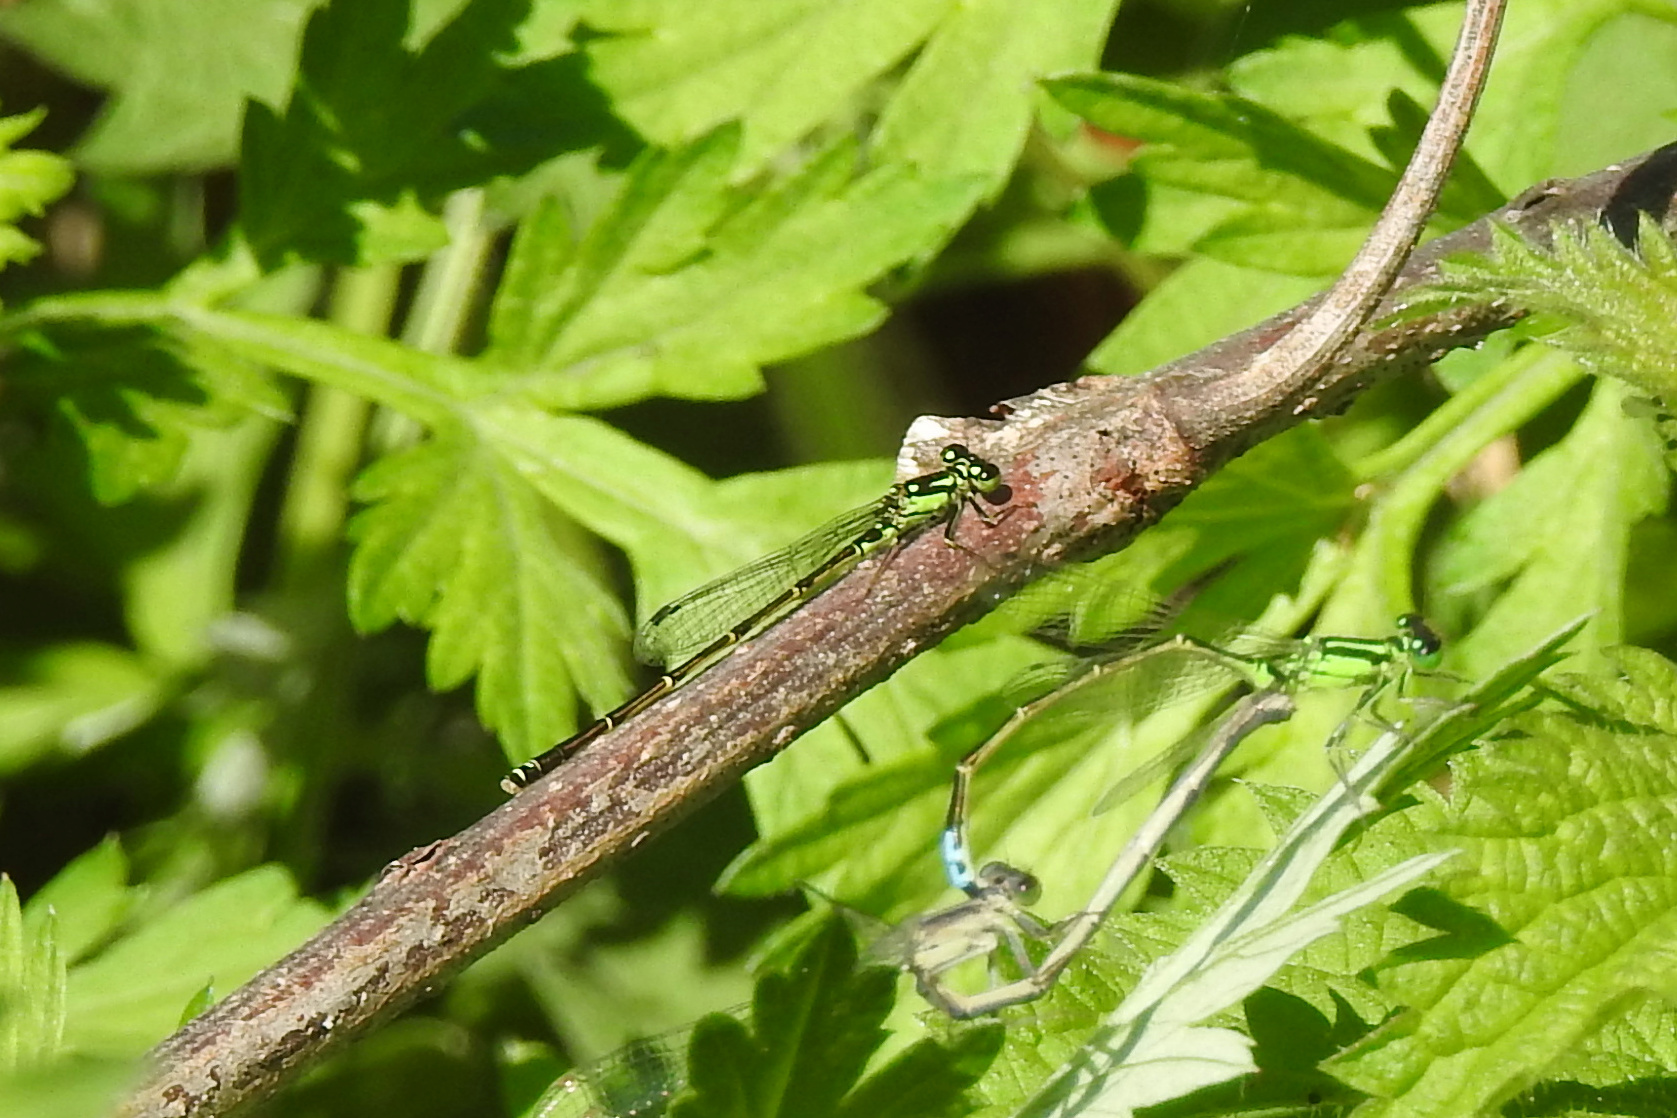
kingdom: Animalia
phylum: Arthropoda
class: Insecta
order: Odonata
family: Coenagrionidae
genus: Ischnura
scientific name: Ischnura posita
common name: Fragile forktail
